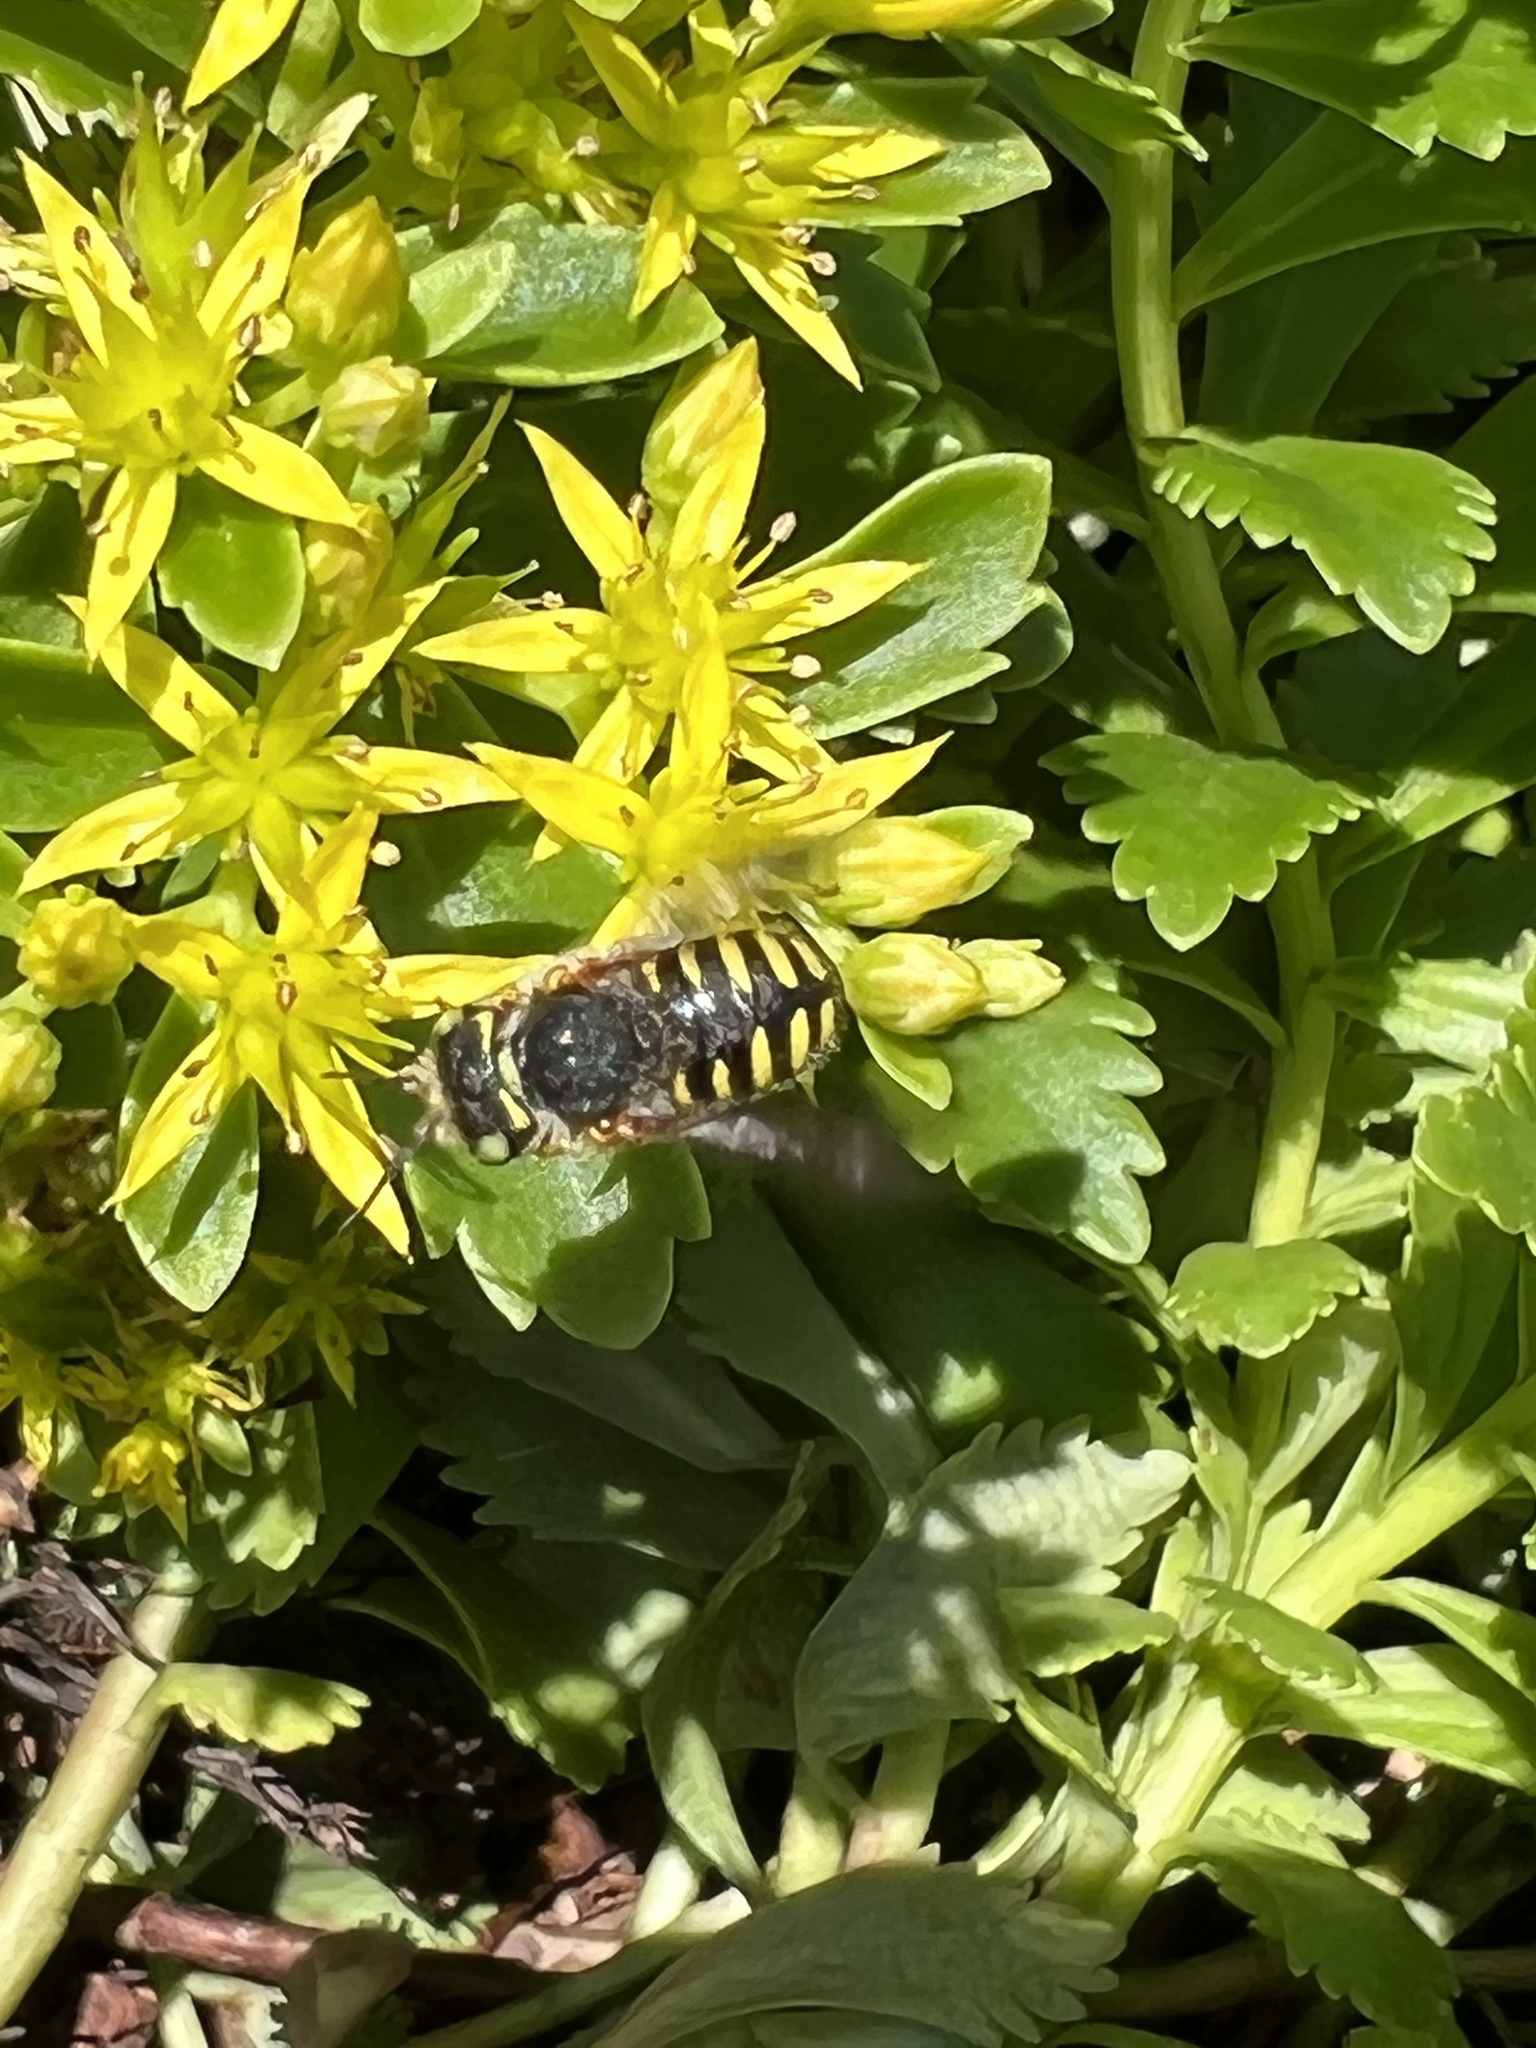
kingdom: Animalia
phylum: Arthropoda
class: Insecta
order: Hymenoptera
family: Megachilidae
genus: Anthidium
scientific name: Anthidium oblongatum
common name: Oblong wool carder bee
